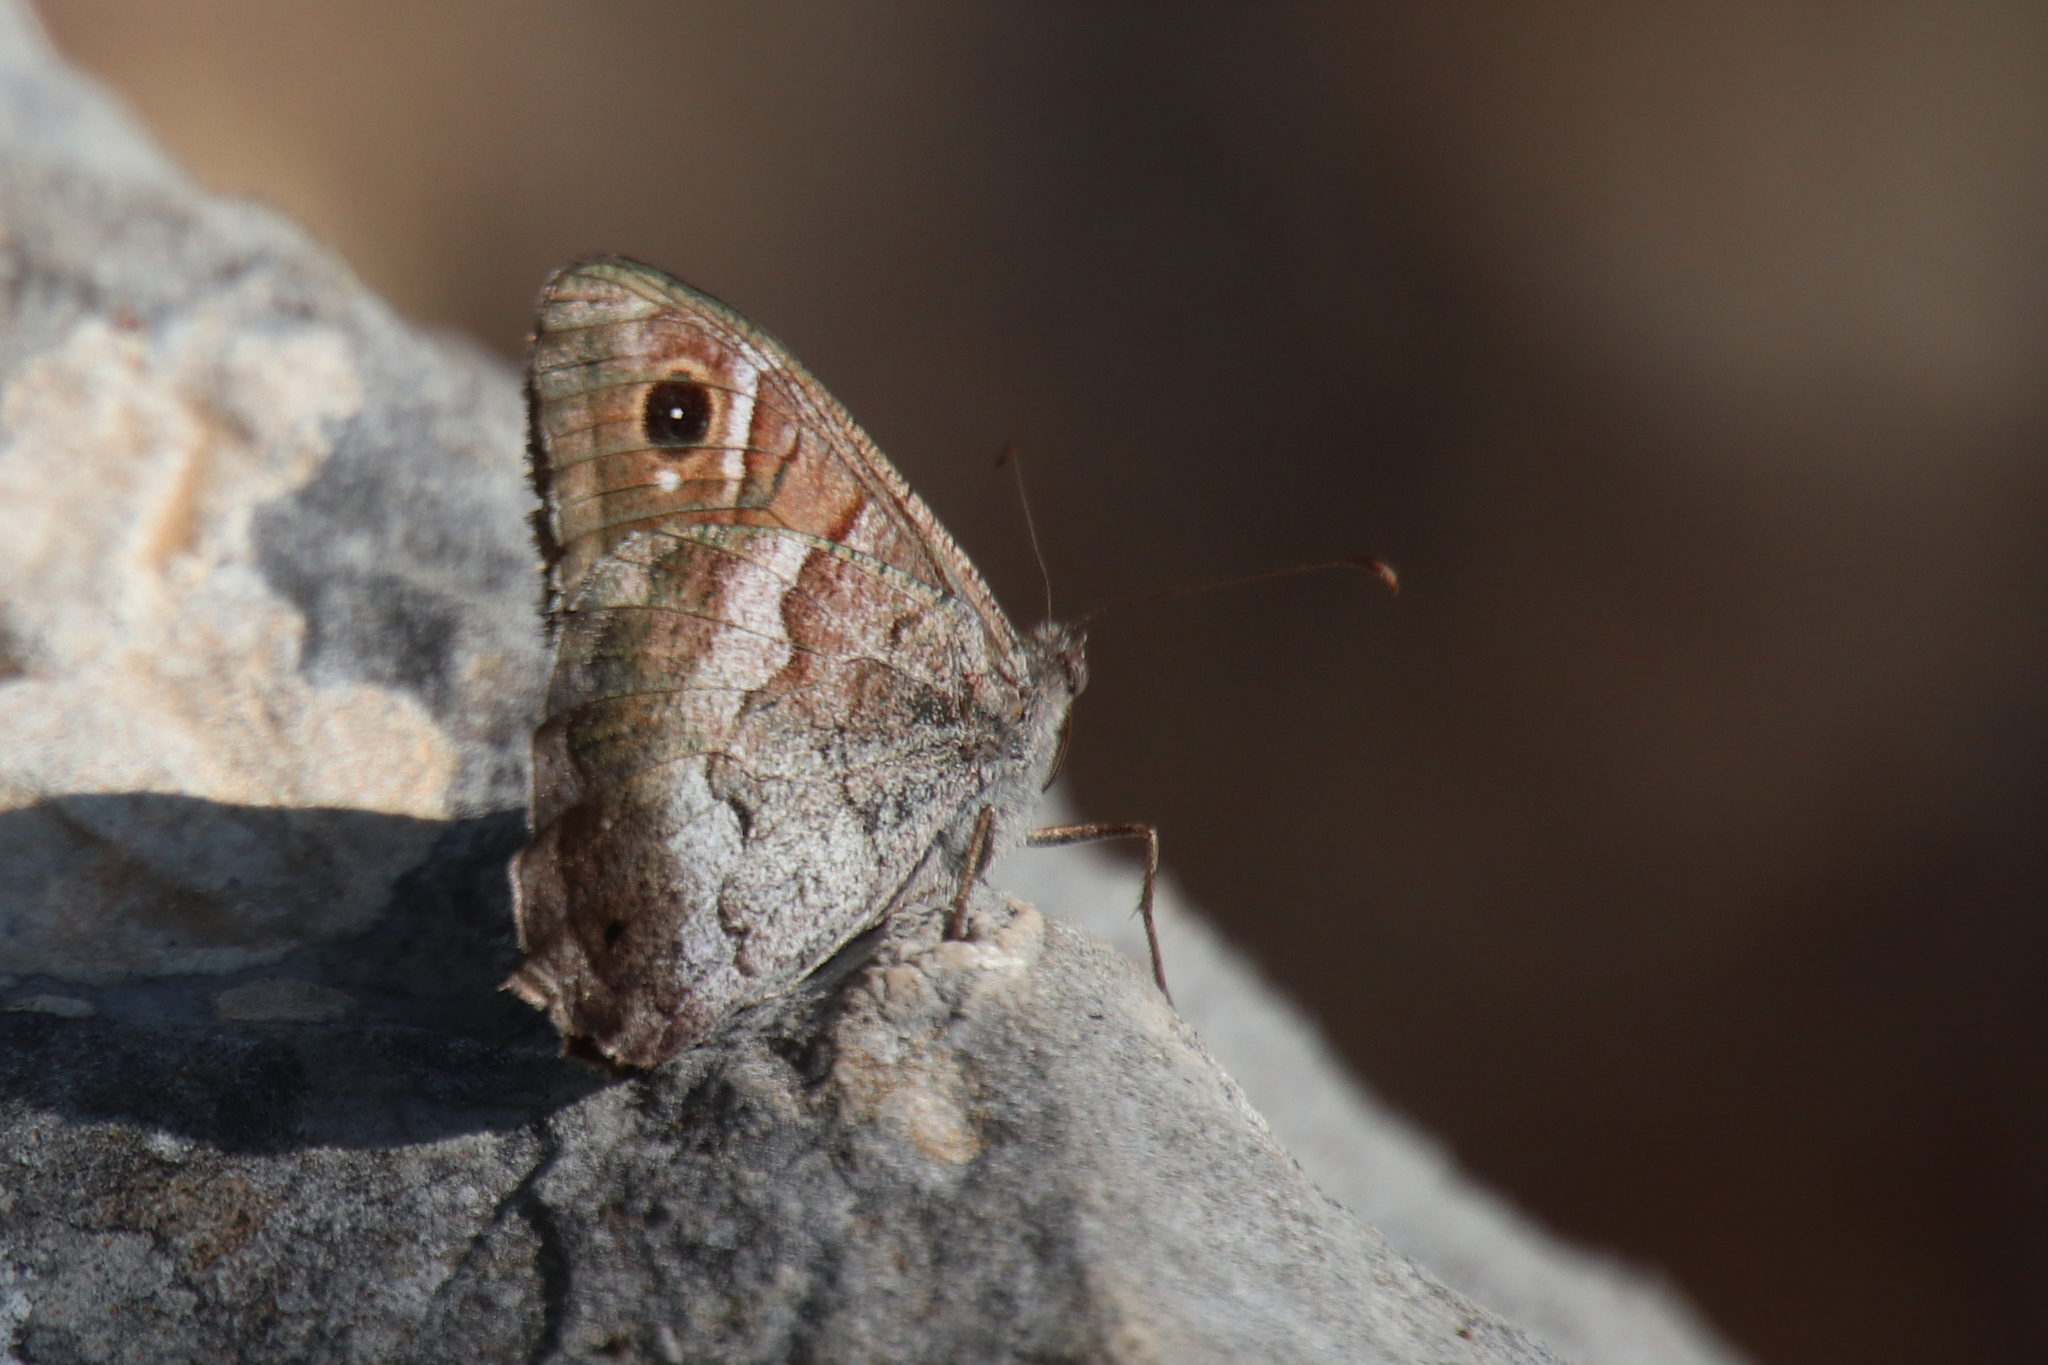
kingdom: Animalia
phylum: Arthropoda
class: Insecta
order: Lepidoptera
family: Nymphalidae
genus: Hipparchia
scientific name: Hipparchia statilinus
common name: Tree grayling
